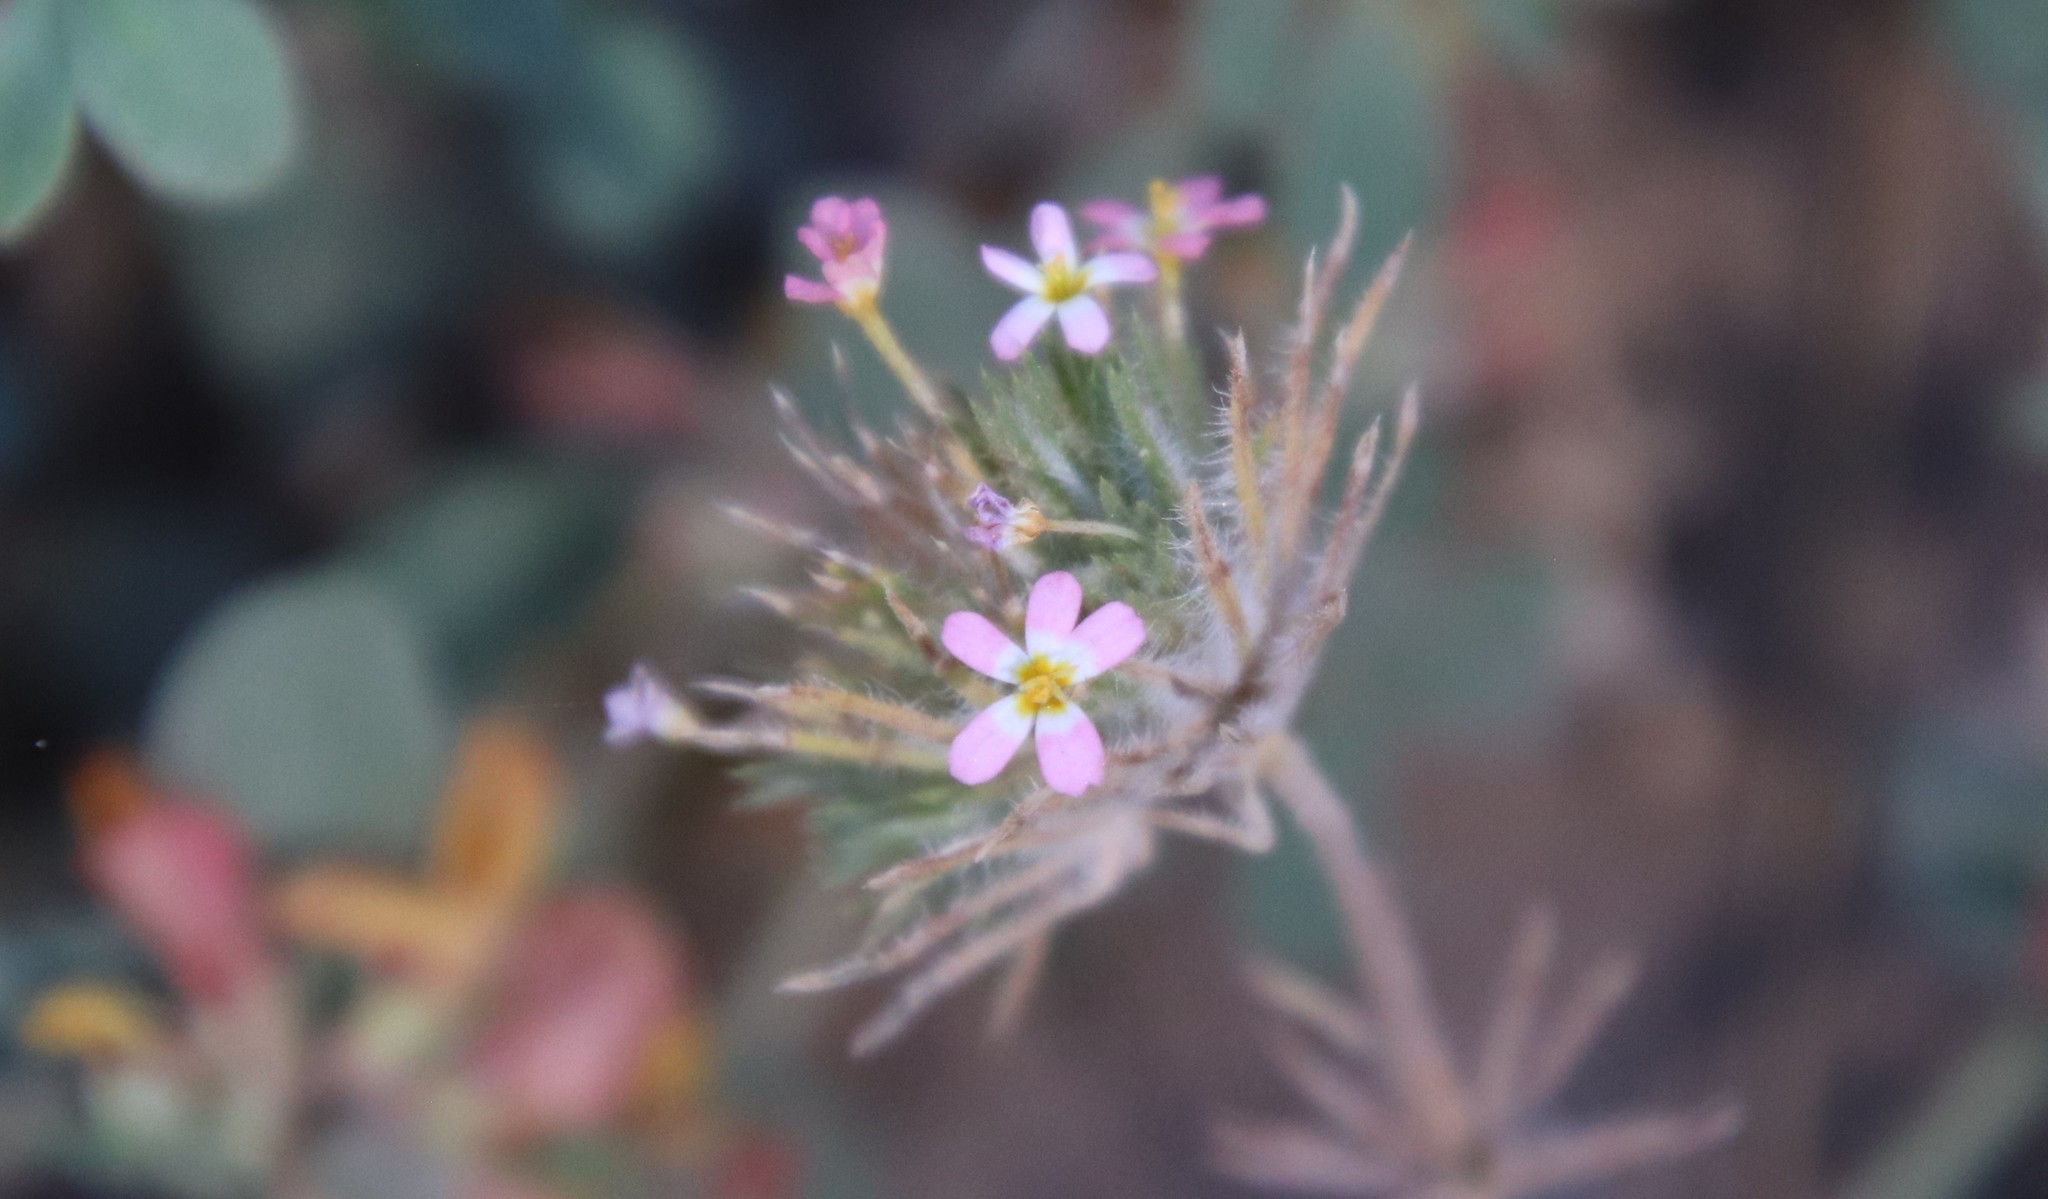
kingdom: Plantae
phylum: Tracheophyta
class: Magnoliopsida
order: Ericales
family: Polemoniaceae
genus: Leptosiphon
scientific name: Leptosiphon ciliatus
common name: Whiskerbrush
